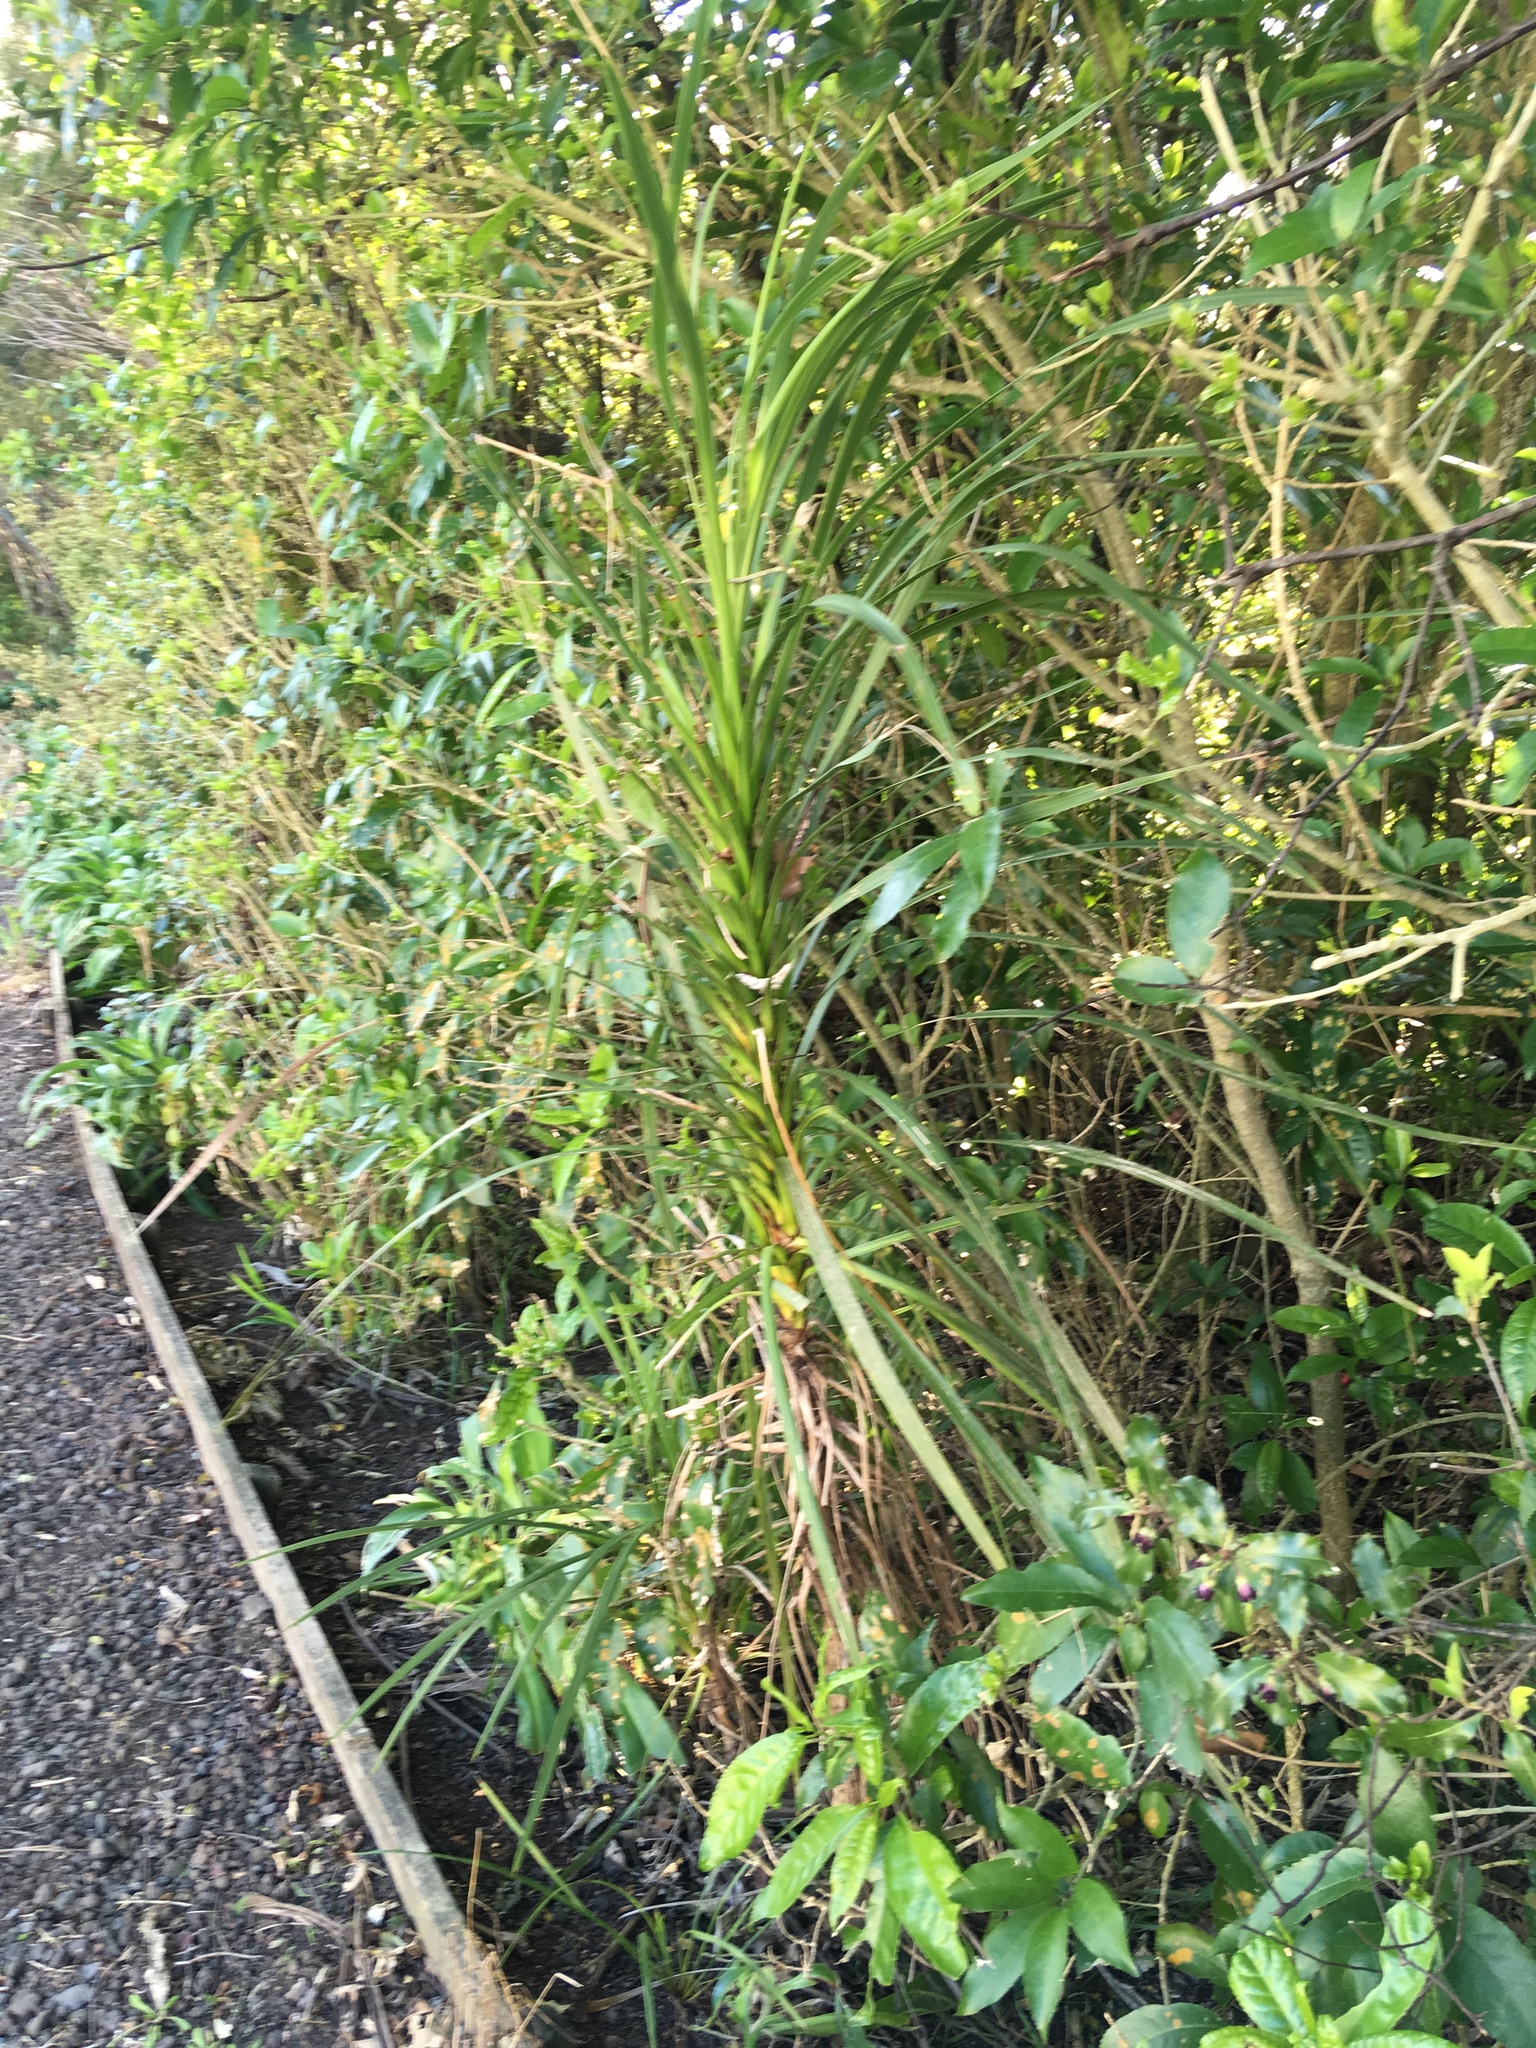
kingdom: Plantae
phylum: Tracheophyta
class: Liliopsida
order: Asparagales
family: Asparagaceae
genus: Cordyline
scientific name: Cordyline australis
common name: Cabbage-palm
